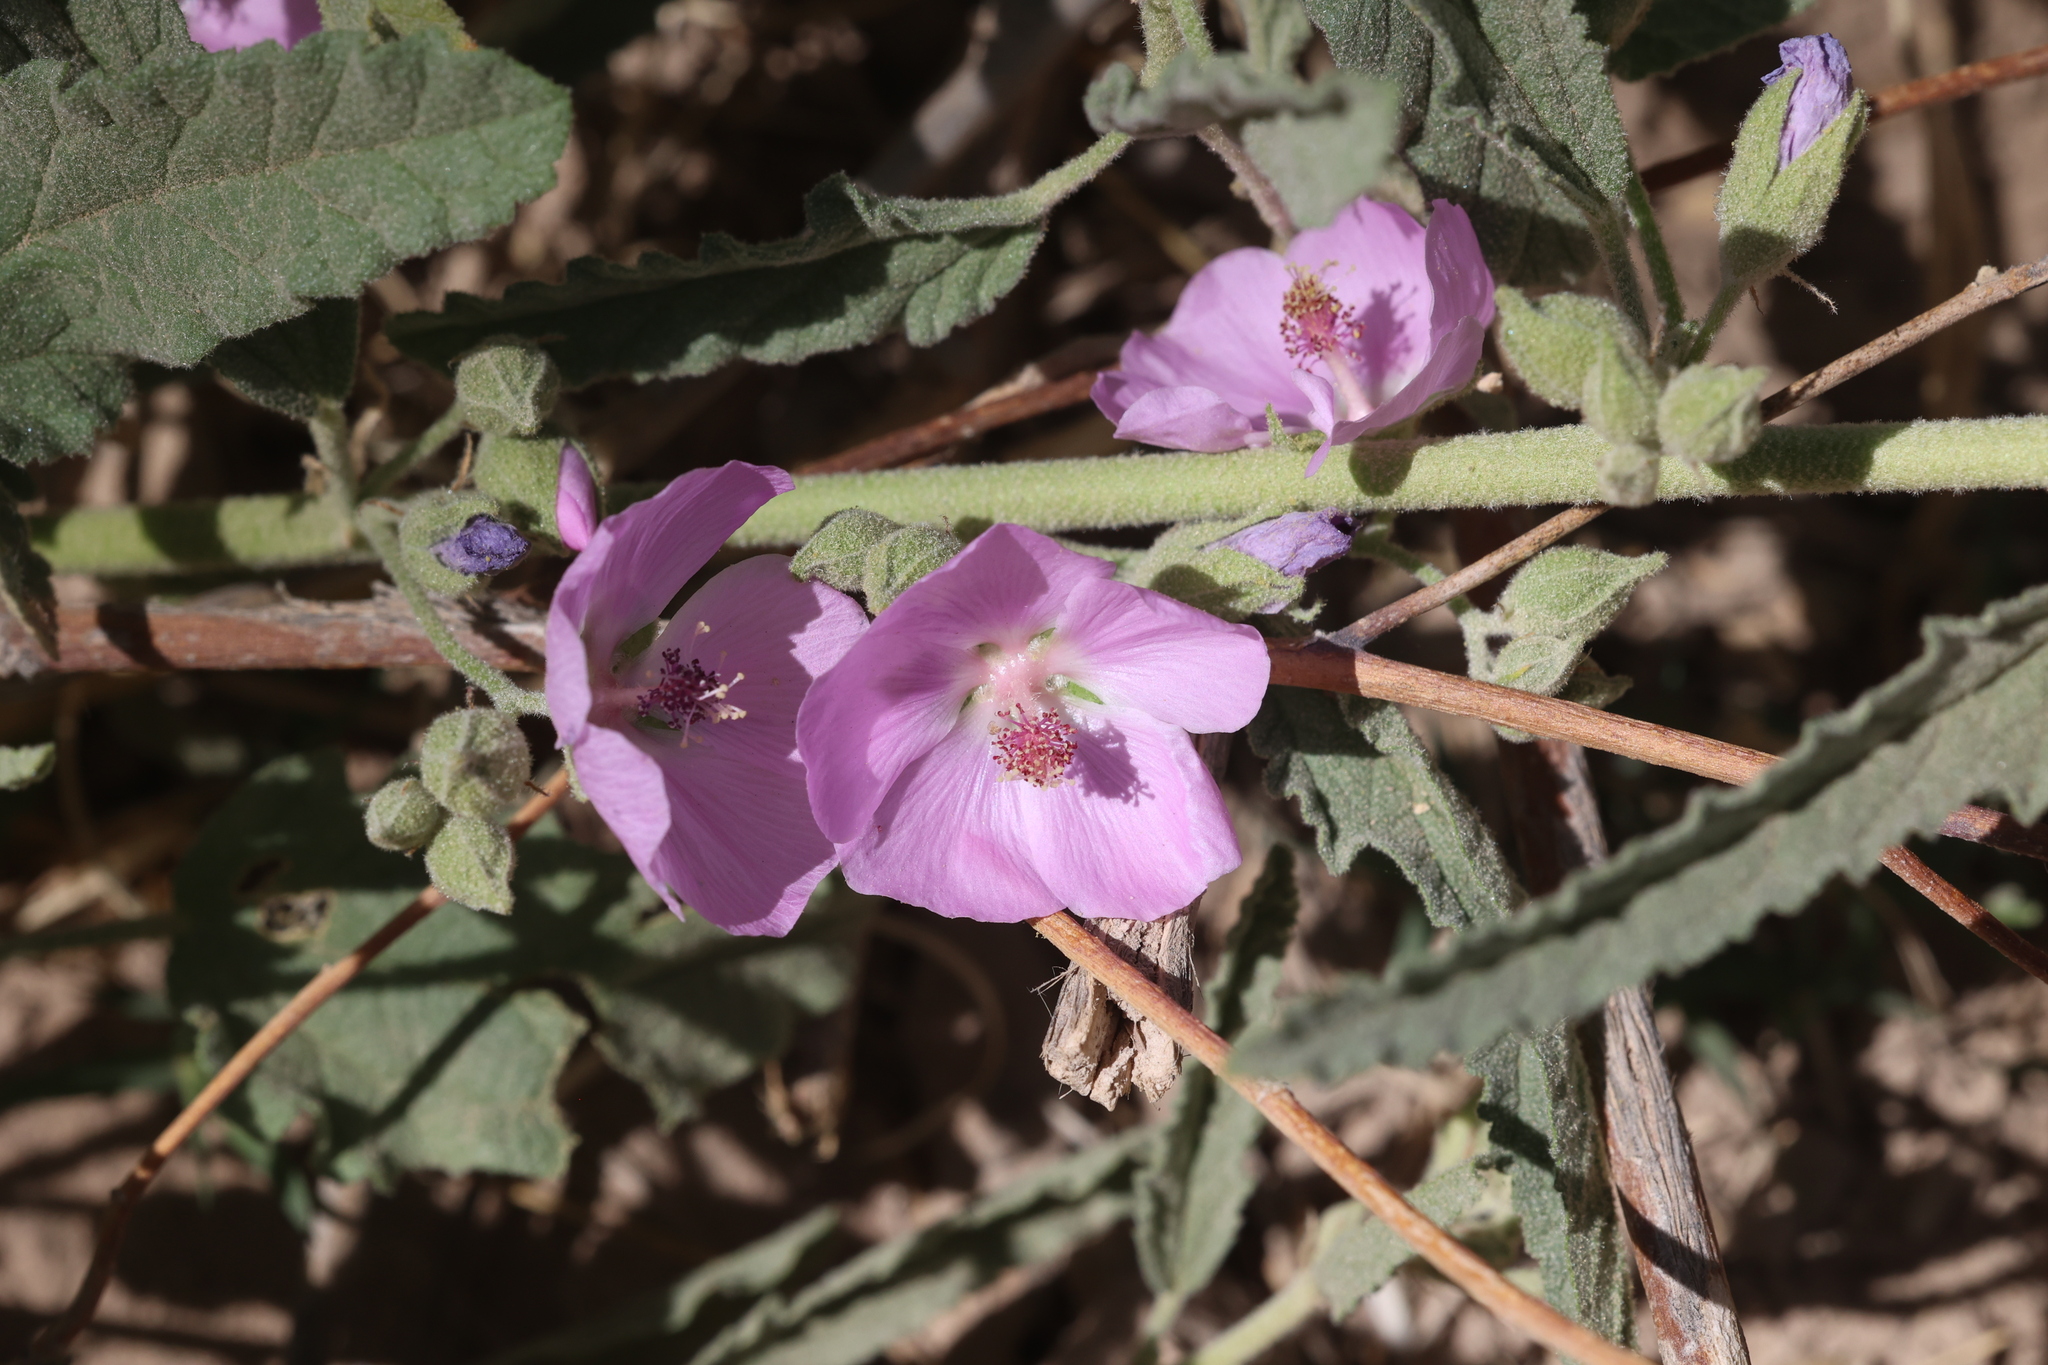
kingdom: Plantae
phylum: Tracheophyta
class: Magnoliopsida
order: Malvales
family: Malvaceae
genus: Sphaeralcea
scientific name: Sphaeralcea angustifolia
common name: Copper globe-mallow
